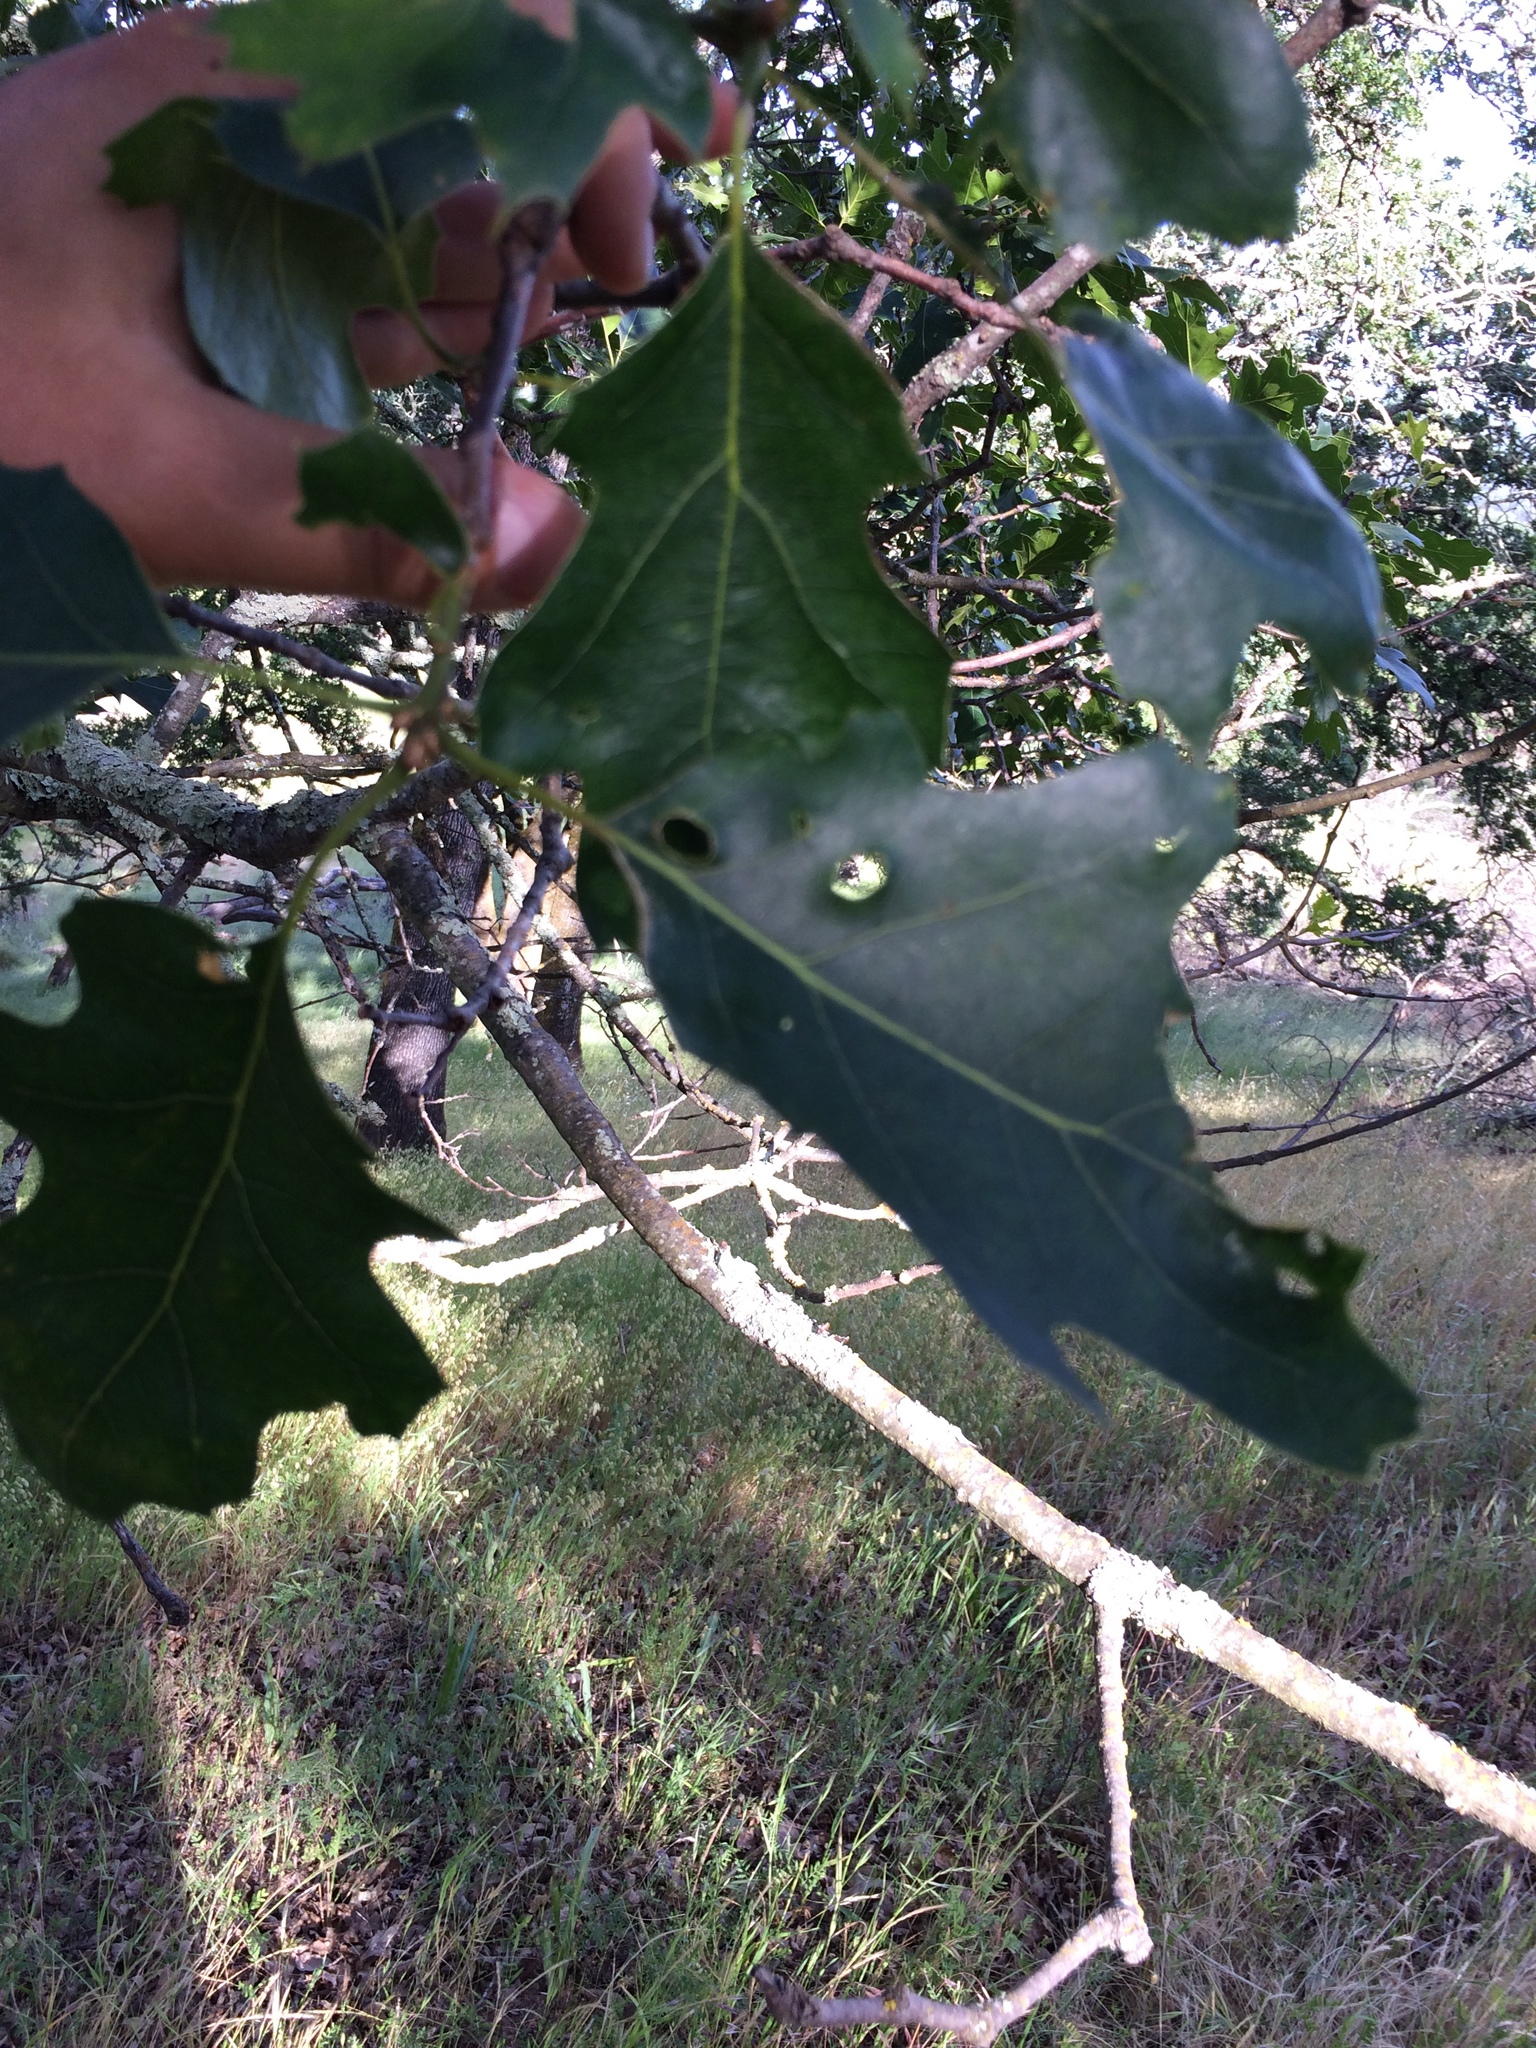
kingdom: Plantae
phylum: Tracheophyta
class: Magnoliopsida
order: Fagales
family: Fagaceae
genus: Quercus
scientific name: Quercus kelloggii
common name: California black oak
